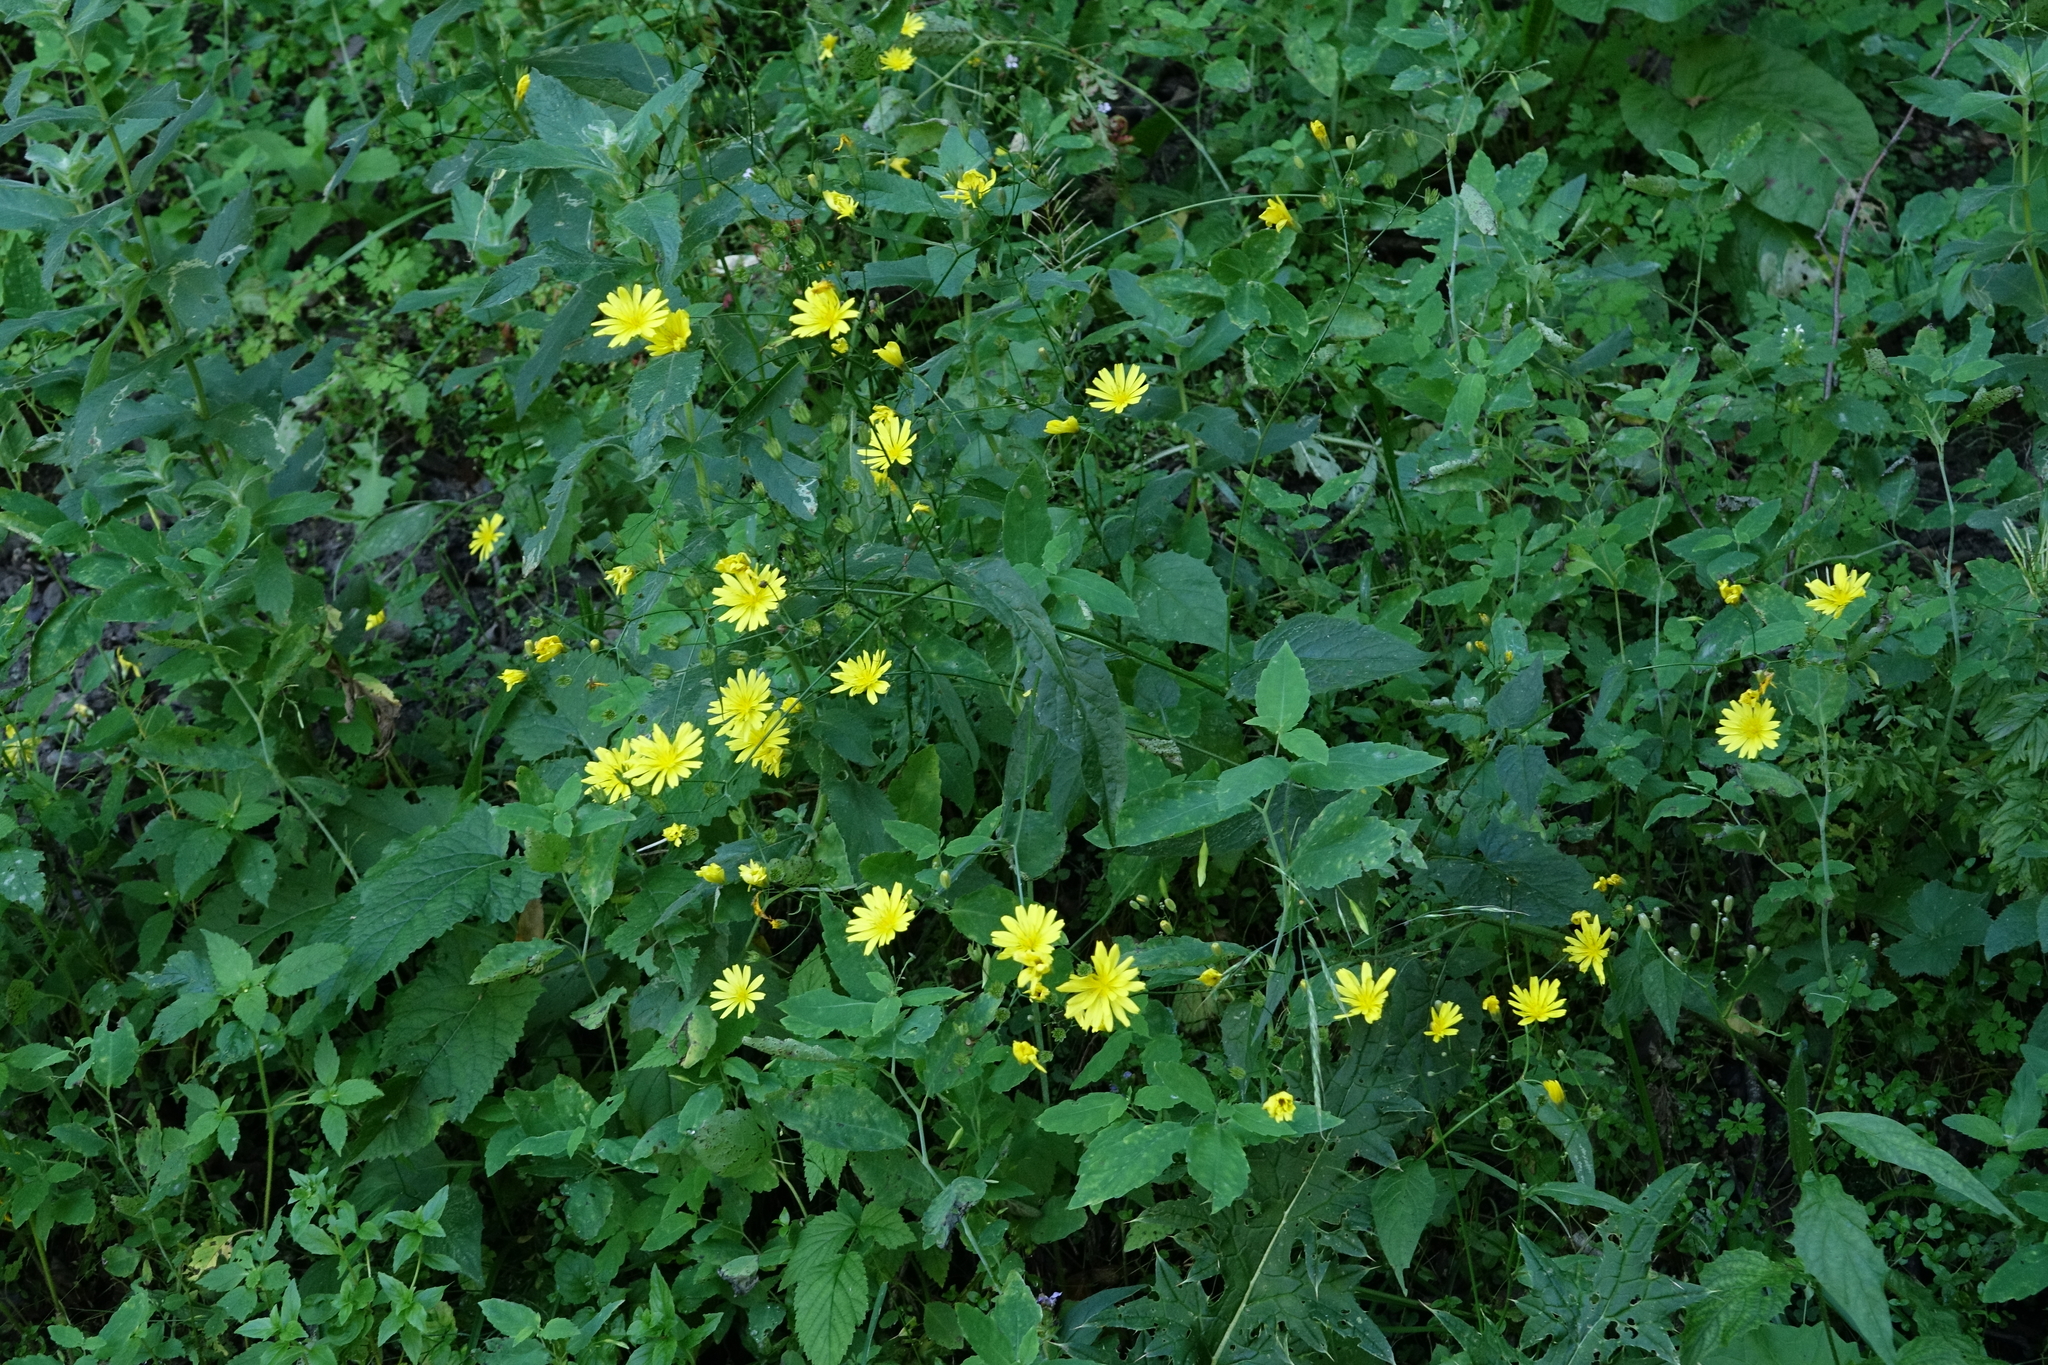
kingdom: Plantae
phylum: Tracheophyta
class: Magnoliopsida
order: Asterales
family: Asteraceae
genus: Lapsana
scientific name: Lapsana communis
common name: Nipplewort
